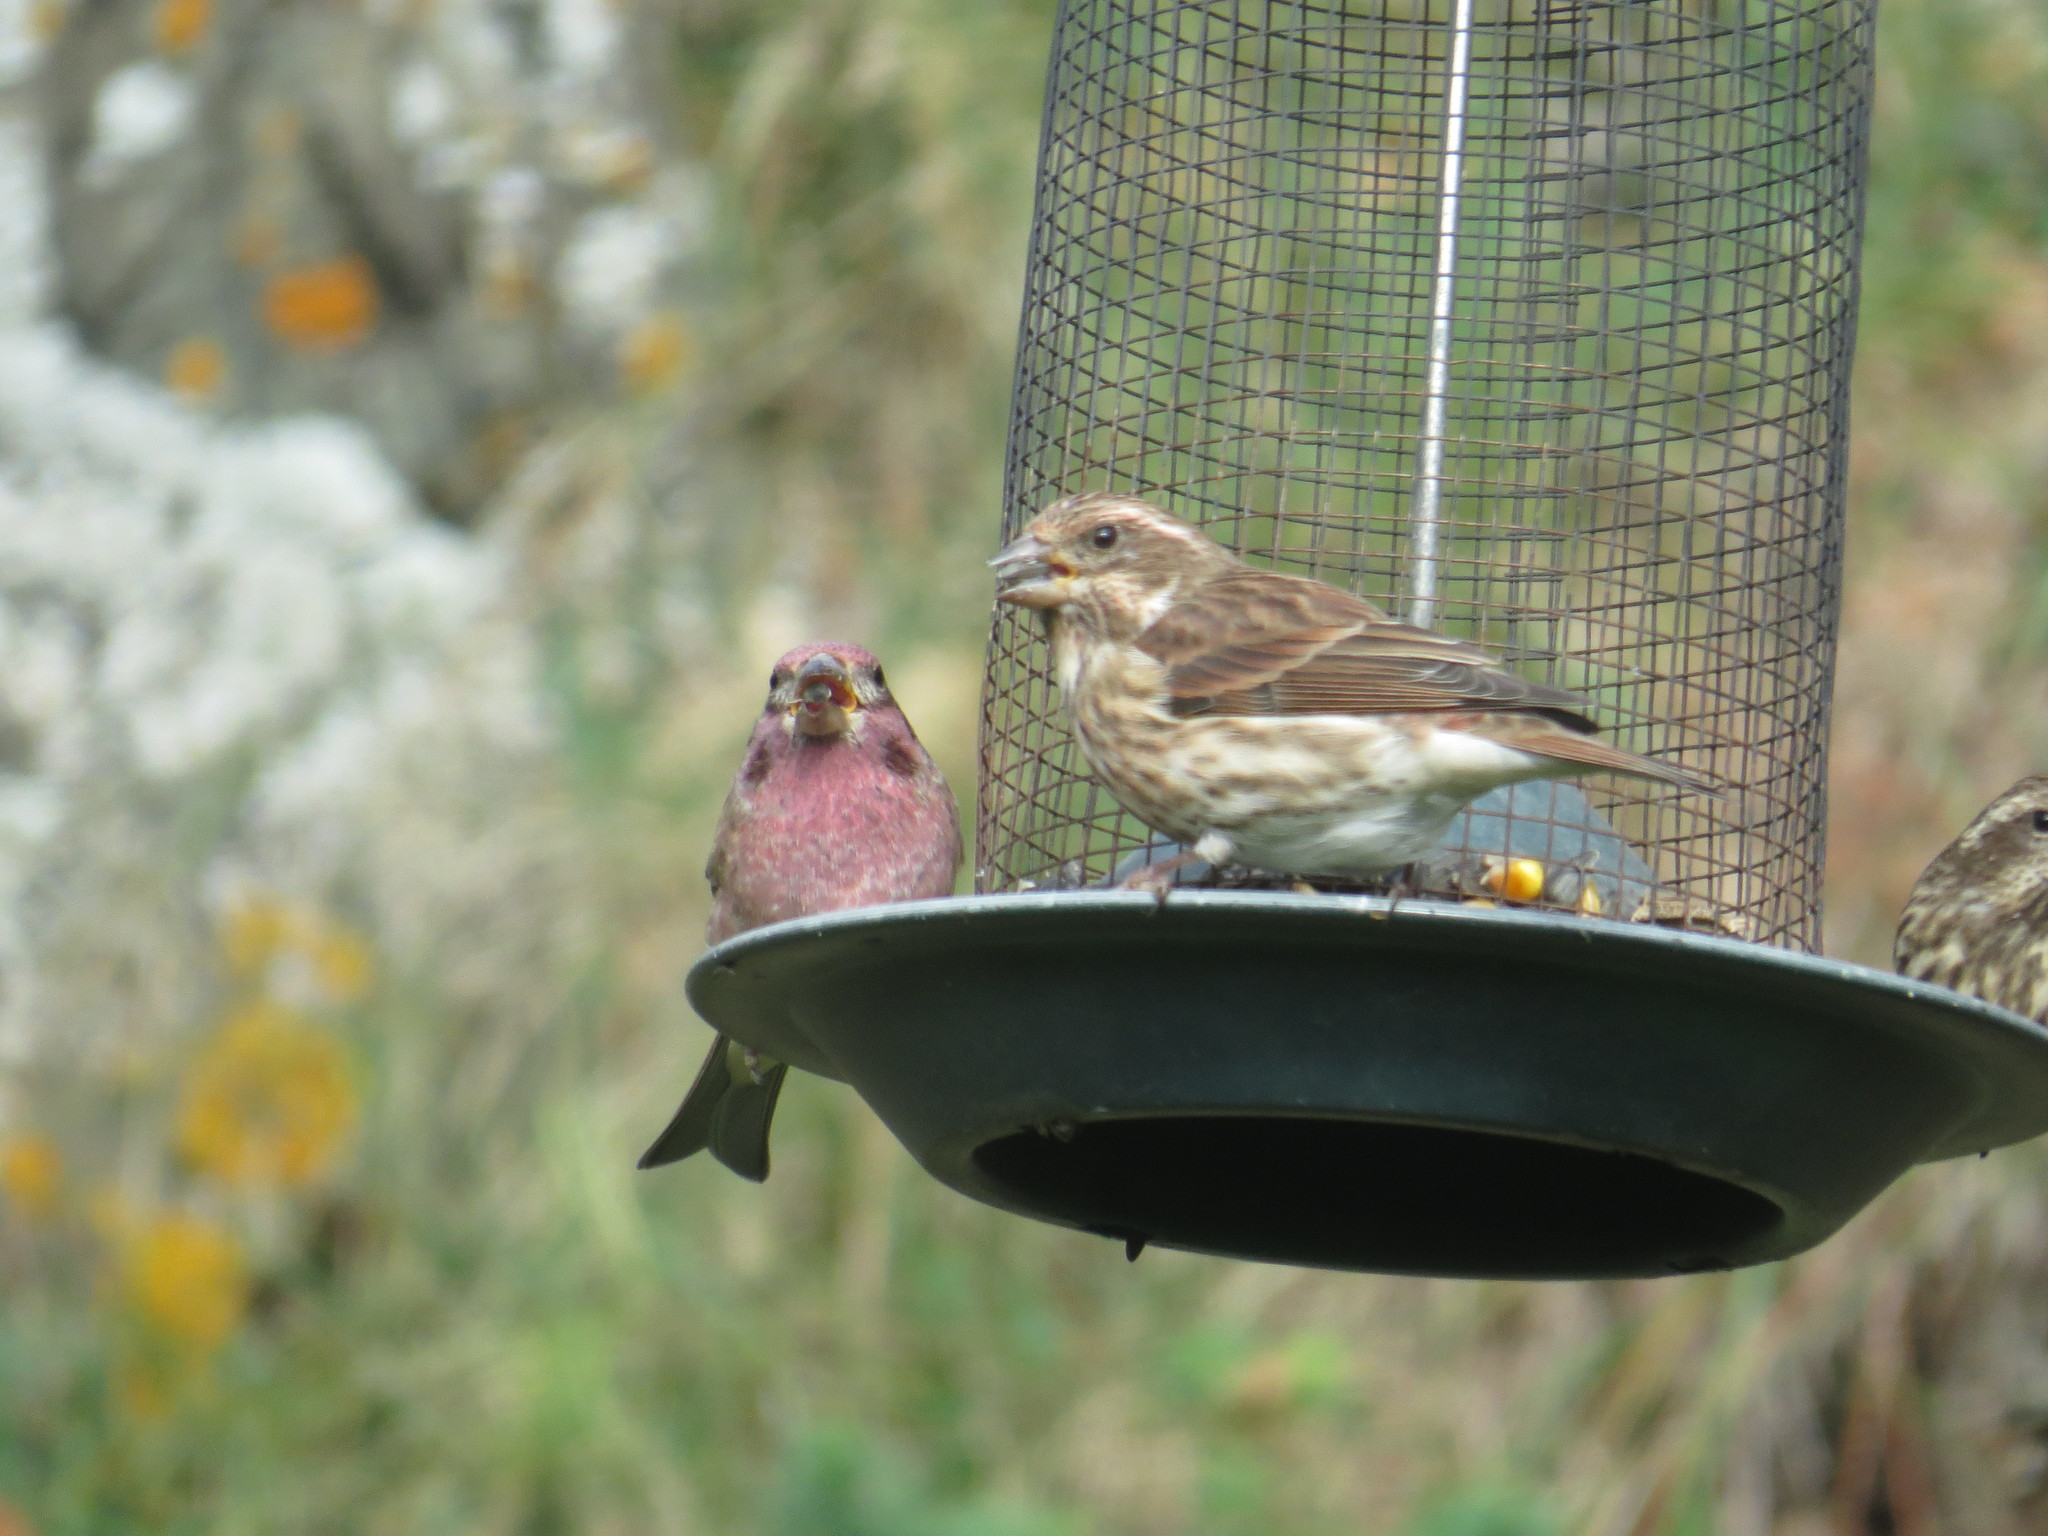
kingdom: Animalia
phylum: Chordata
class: Aves
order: Passeriformes
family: Fringillidae
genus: Haemorhous
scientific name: Haemorhous purpureus
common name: Purple finch
